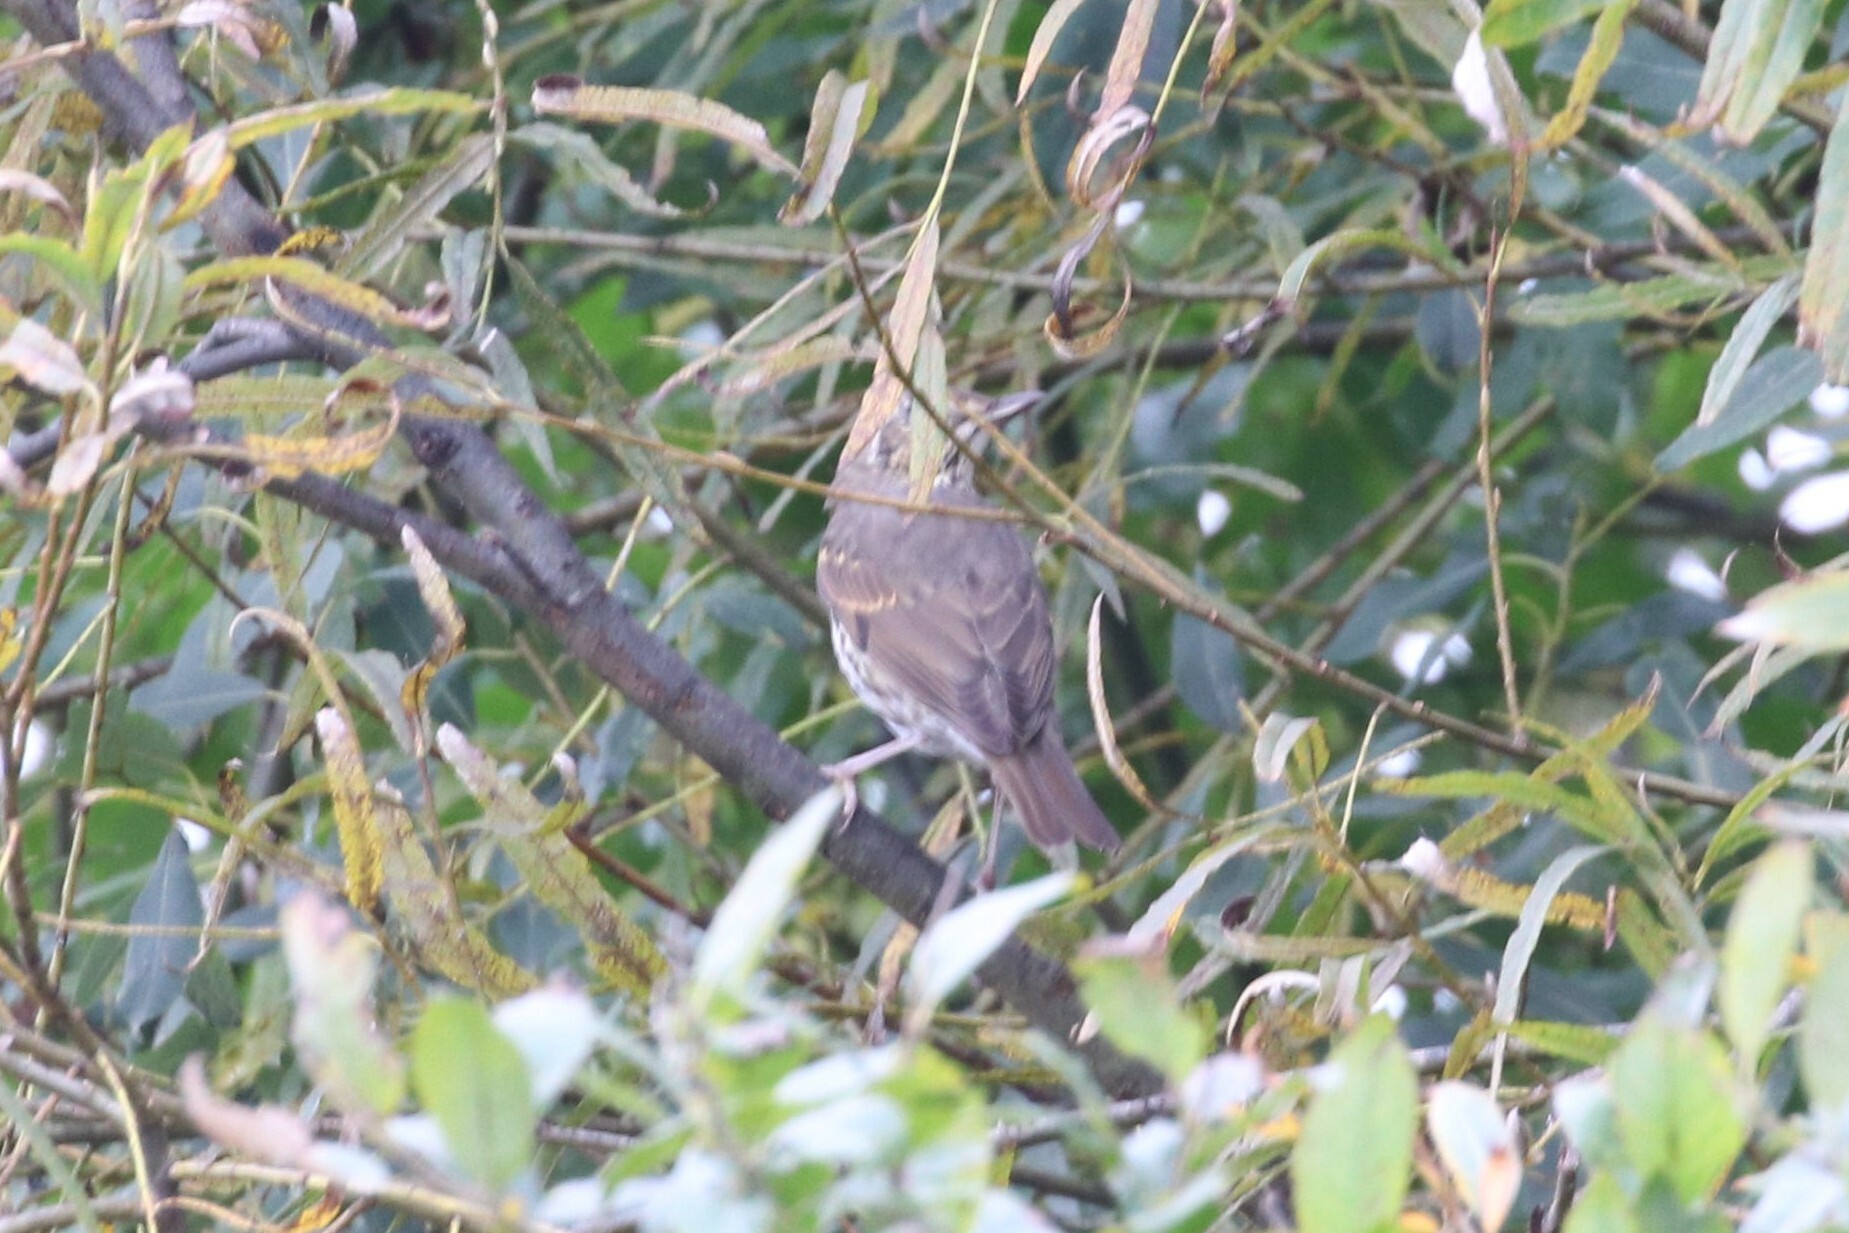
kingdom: Animalia
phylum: Chordata
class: Aves
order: Passeriformes
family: Turdidae
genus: Turdus
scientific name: Turdus philomelos
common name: Song thrush
